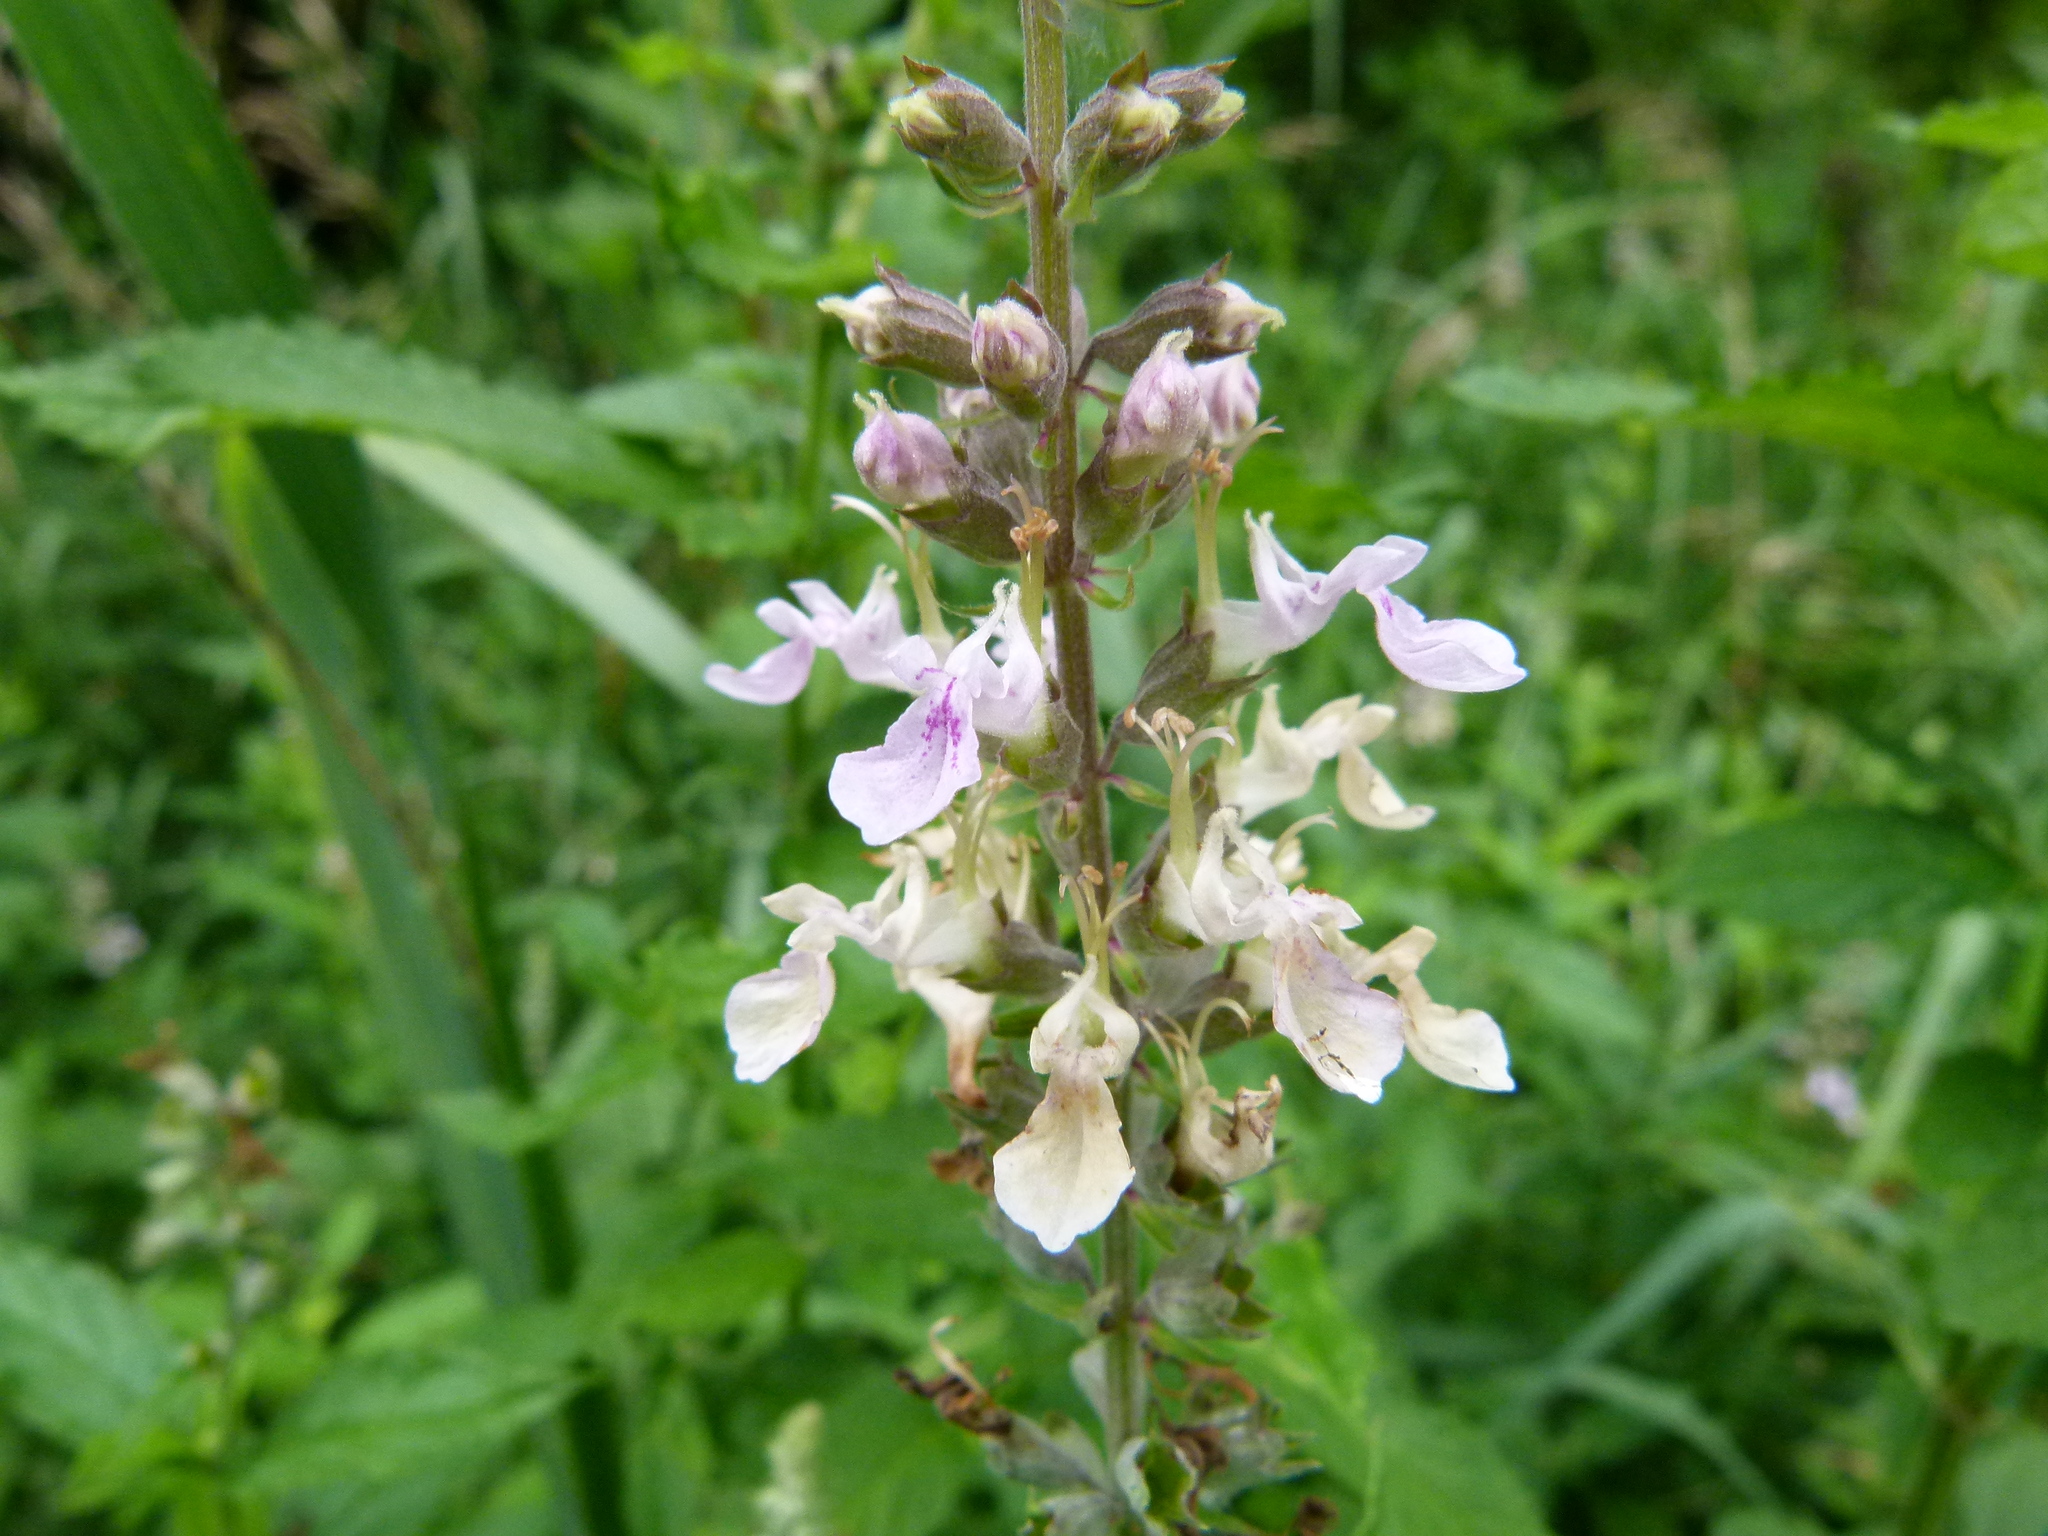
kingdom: Plantae
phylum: Tracheophyta
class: Magnoliopsida
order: Lamiales
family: Lamiaceae
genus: Teucrium
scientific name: Teucrium canadense
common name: American germander
